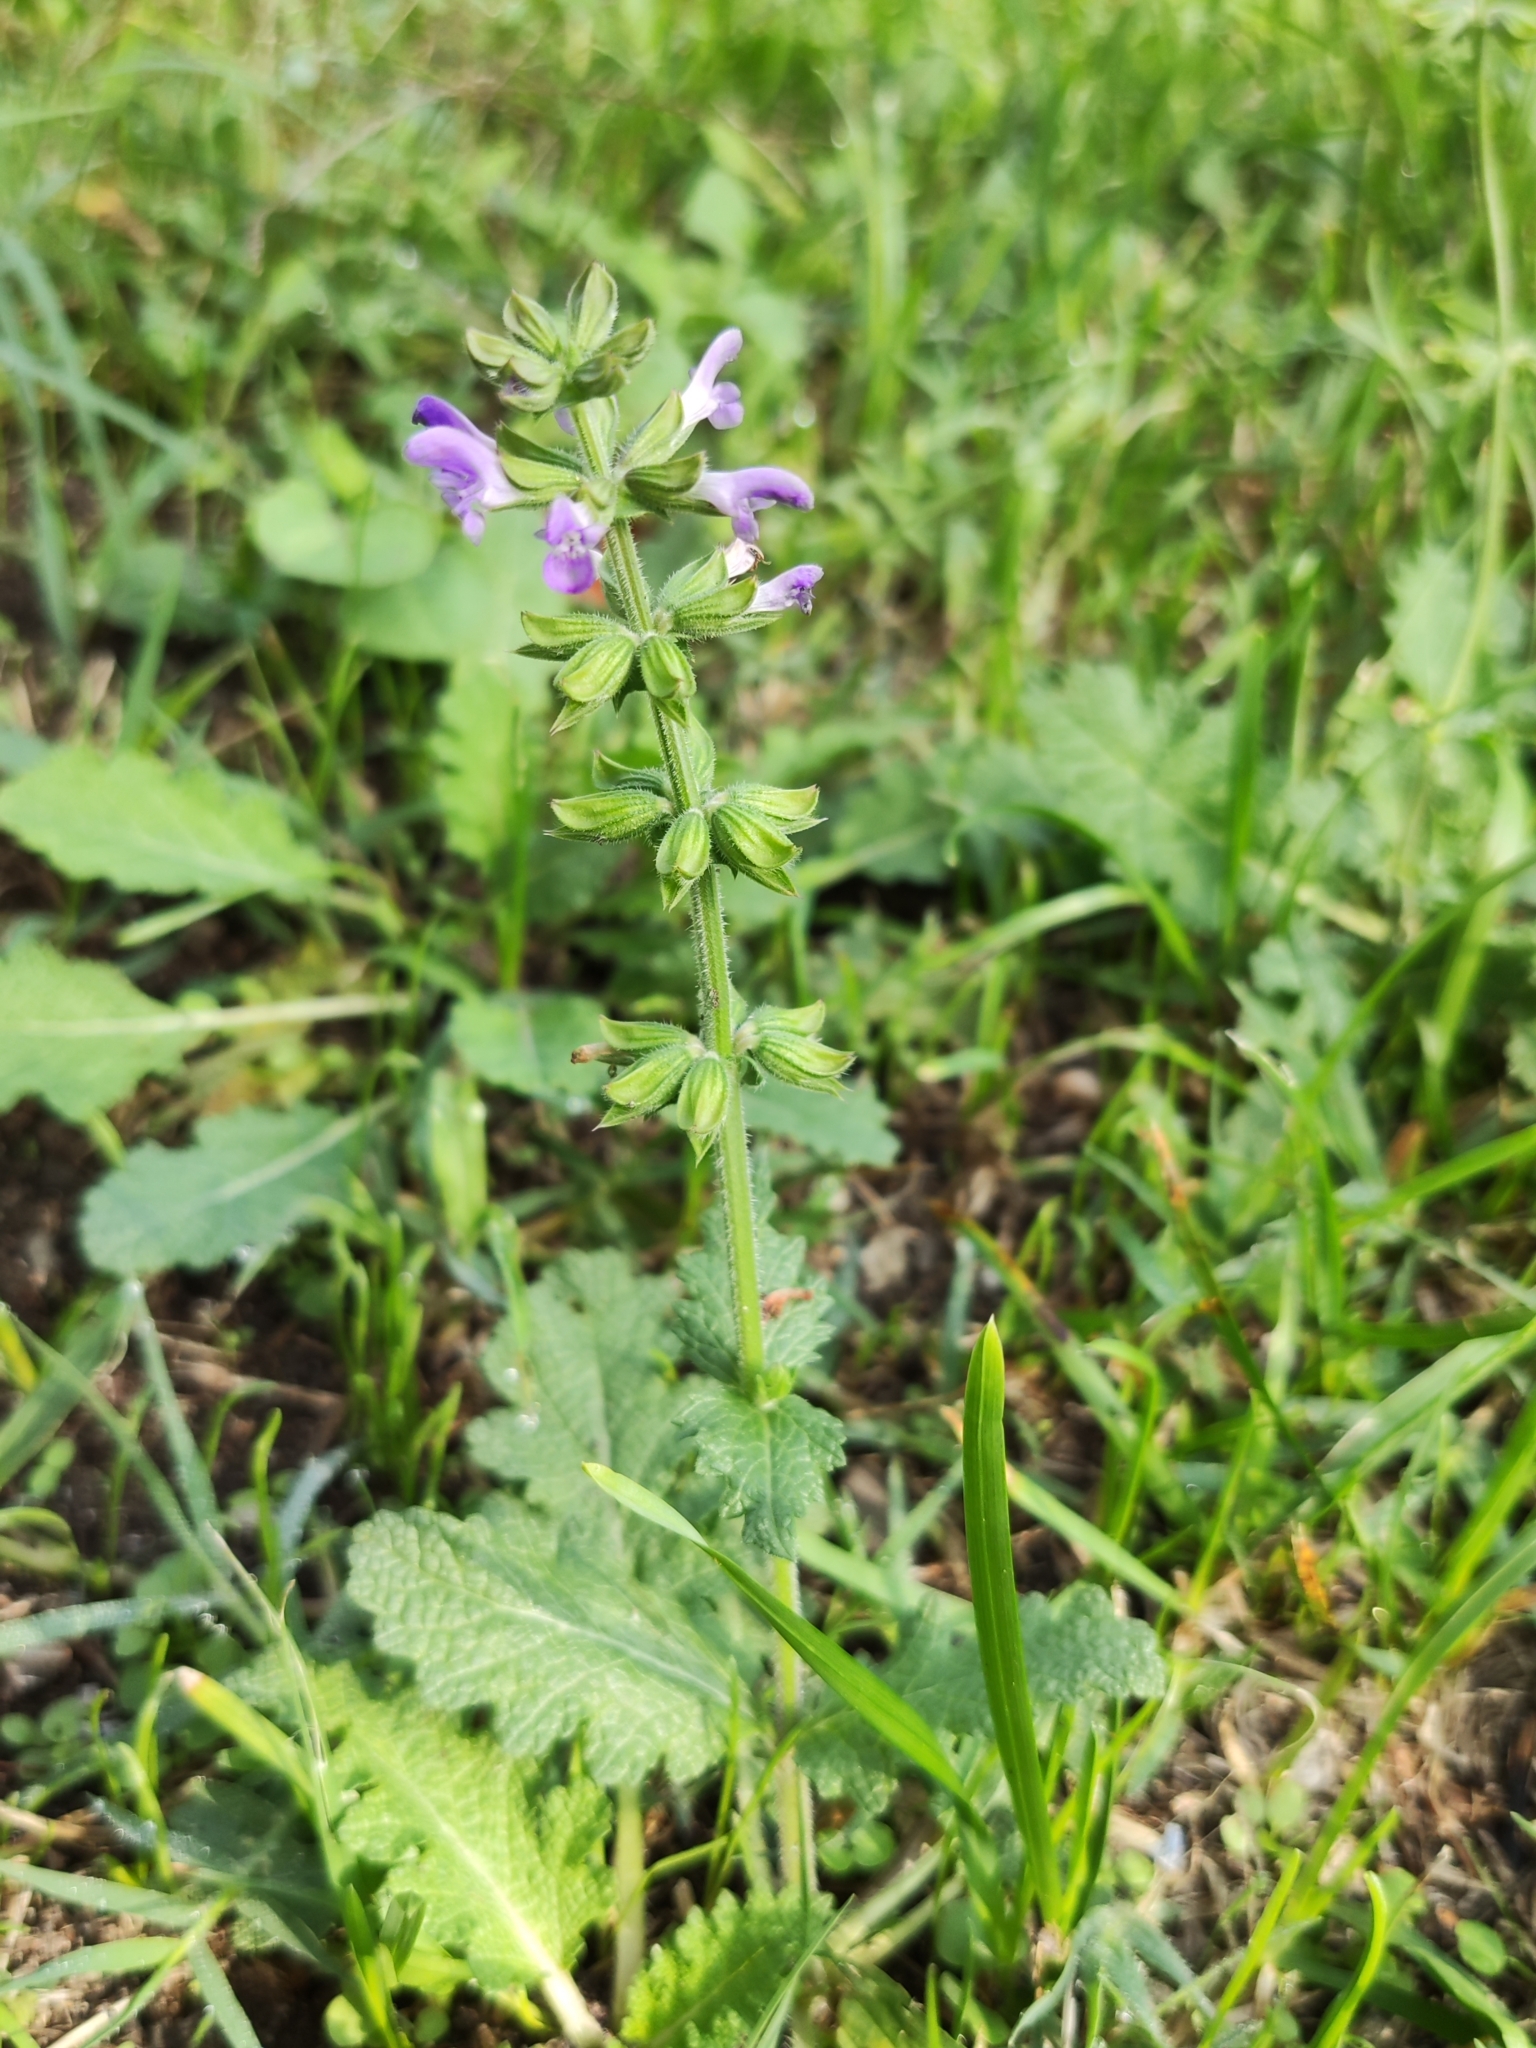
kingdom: Plantae
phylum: Tracheophyta
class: Magnoliopsida
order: Lamiales
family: Lamiaceae
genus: Salvia
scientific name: Salvia verbenaca
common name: Wild clary
